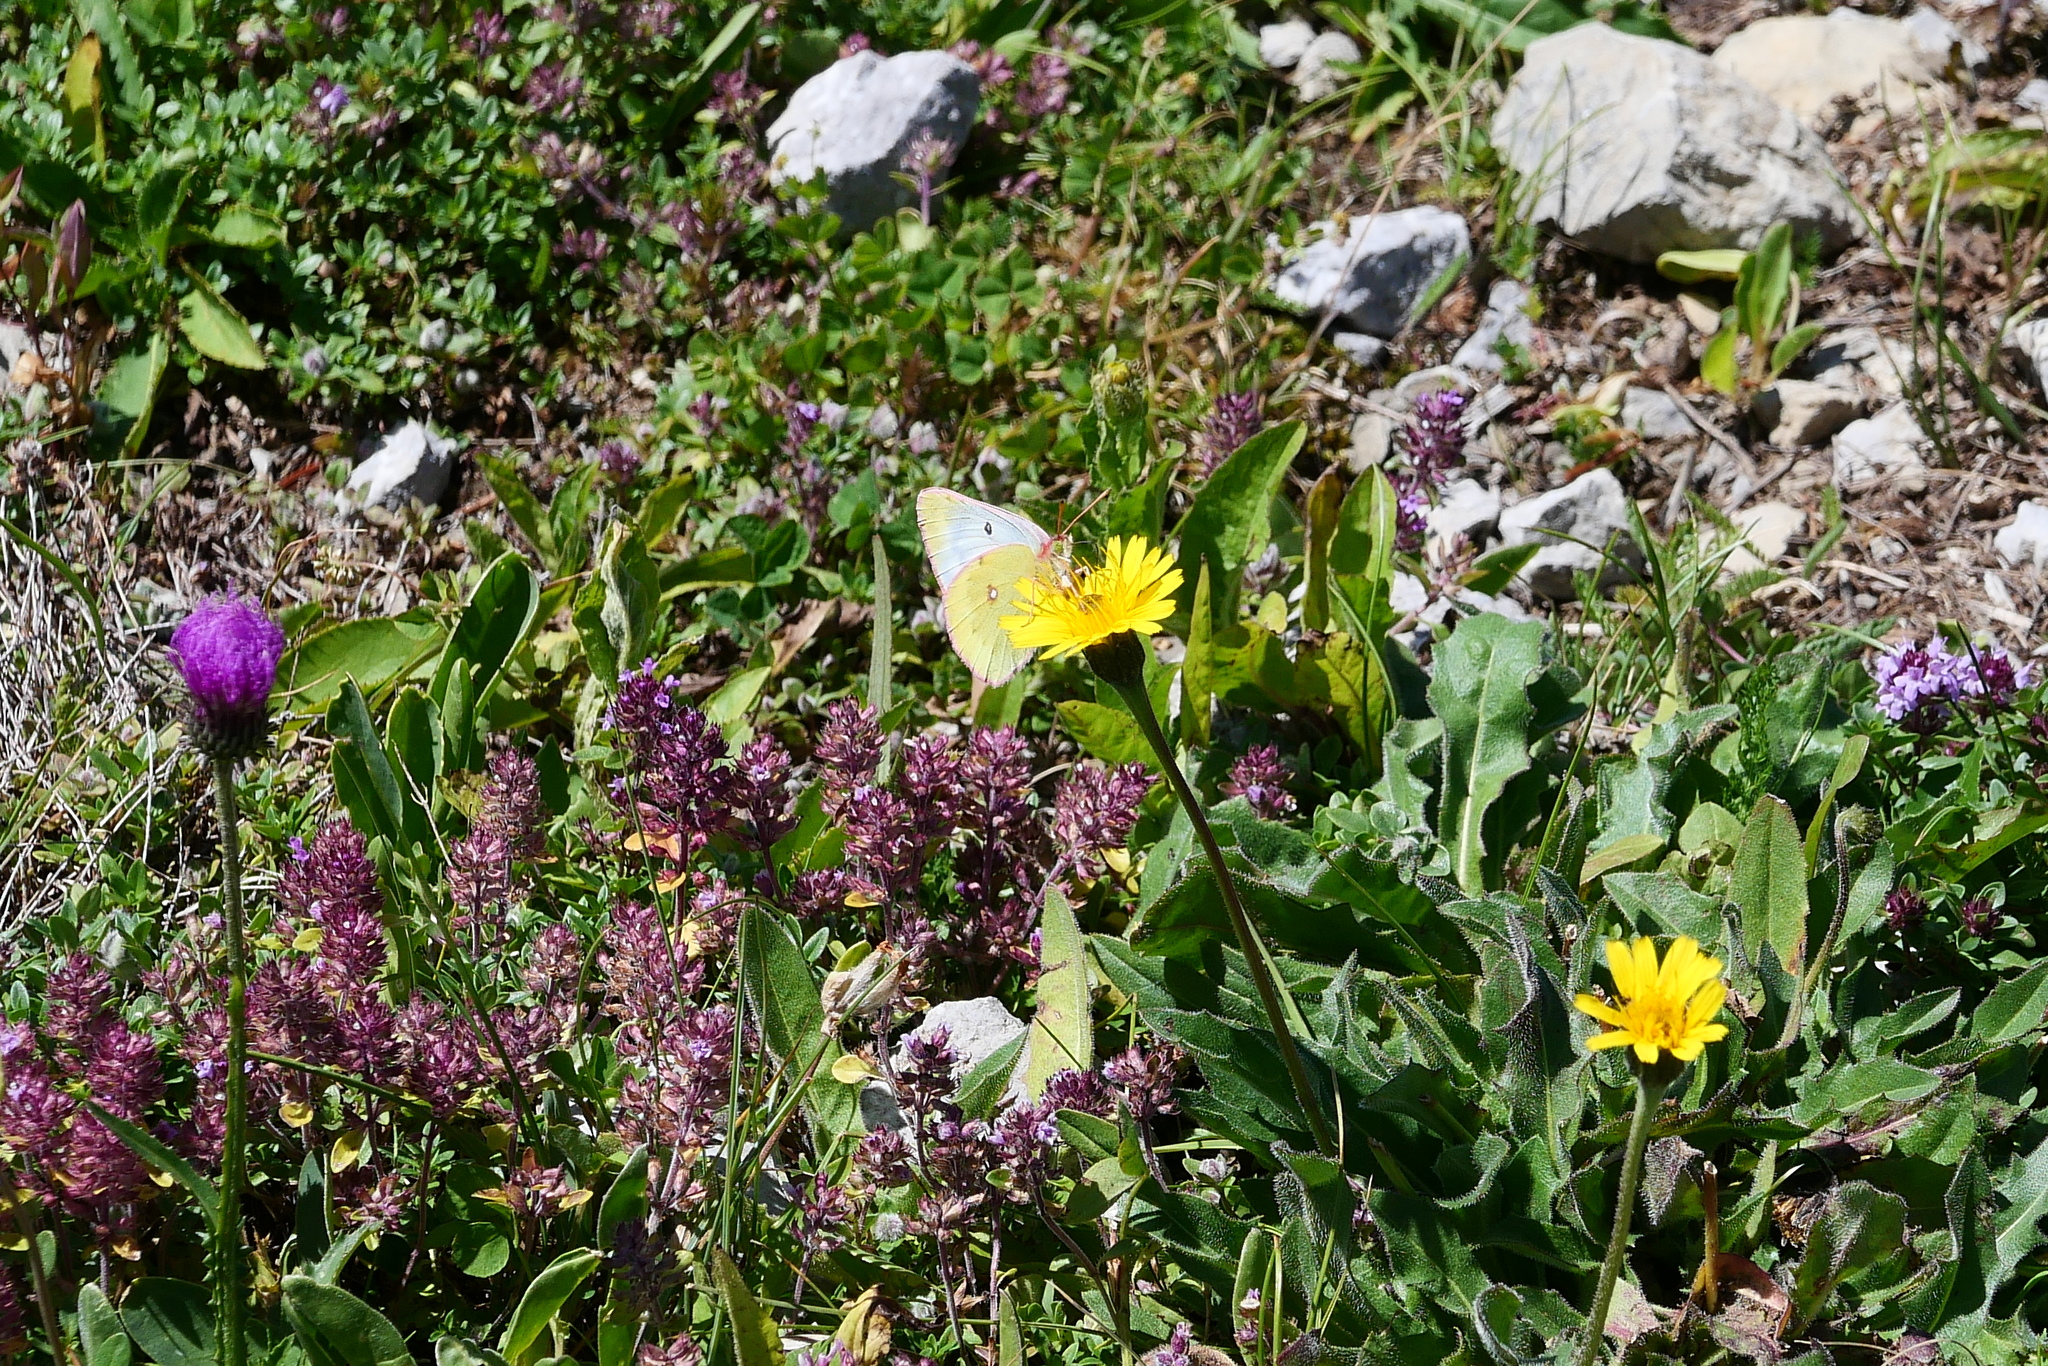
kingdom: Animalia
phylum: Arthropoda
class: Insecta
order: Lepidoptera
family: Pieridae
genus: Colias
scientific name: Colias phicomone
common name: Mountain clouded yellow
